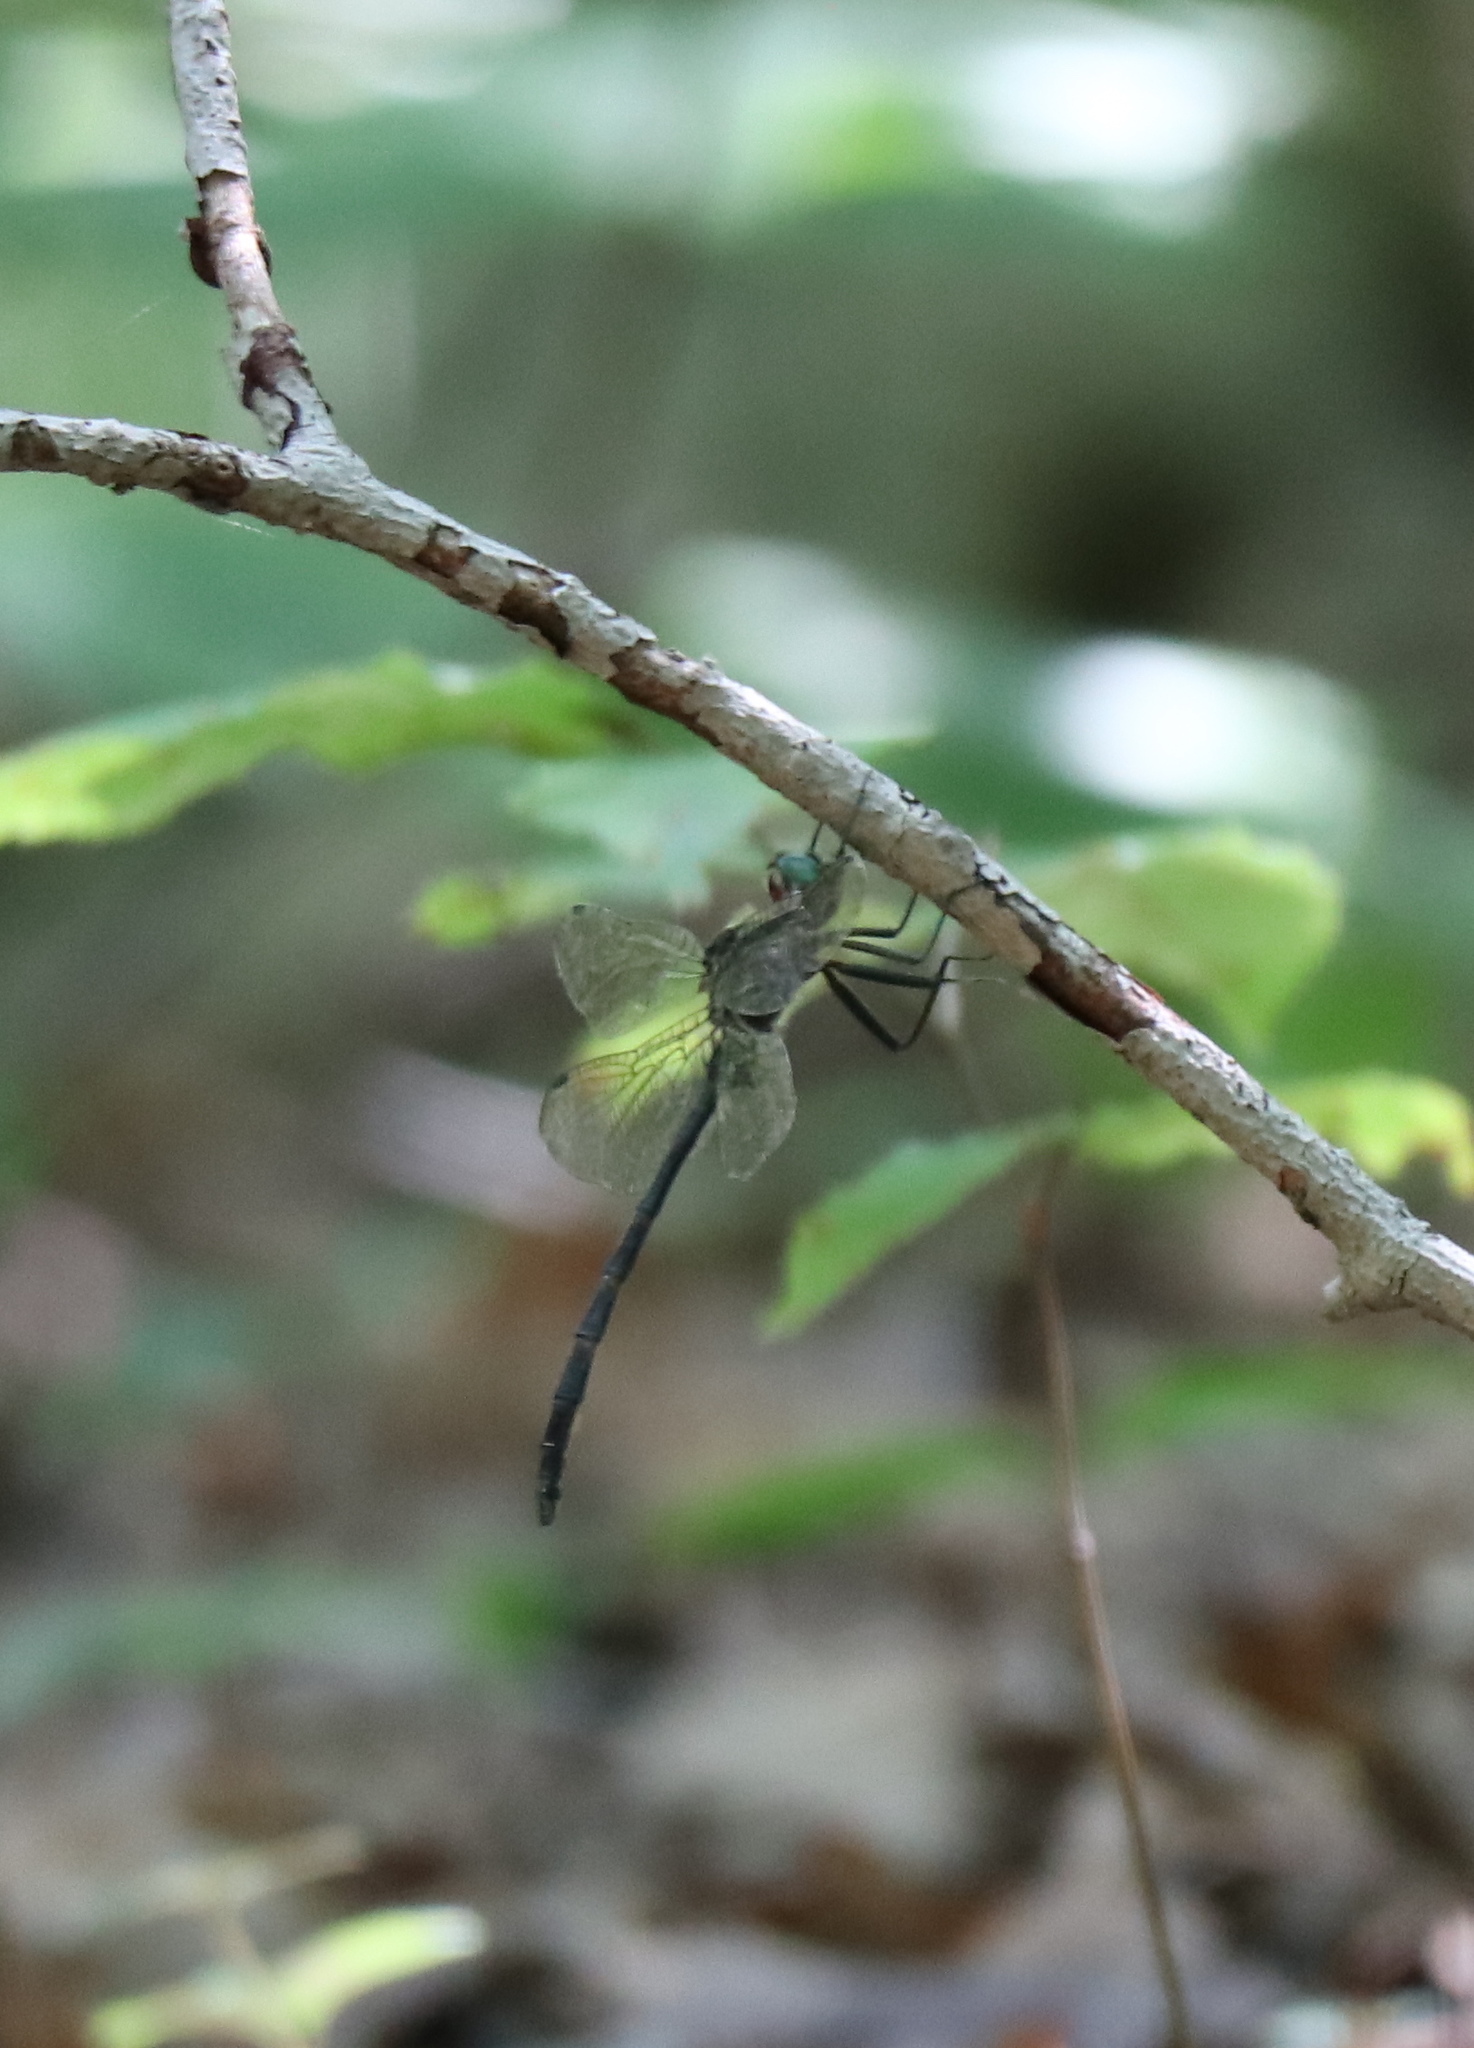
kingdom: Animalia
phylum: Arthropoda
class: Insecta
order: Odonata
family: Corduliidae
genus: Somatochlora
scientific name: Somatochlora linearis
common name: Mocha emerald
